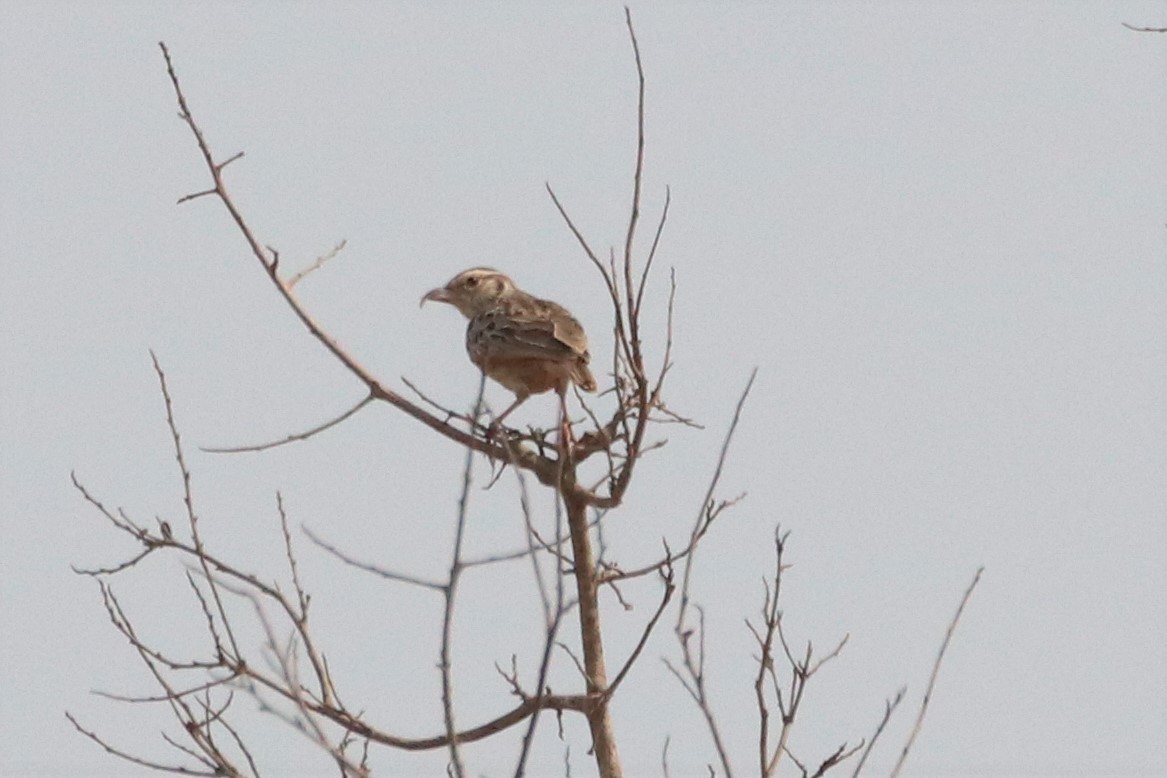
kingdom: Animalia
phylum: Chordata
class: Aves
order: Passeriformes
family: Alaudidae
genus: Mirafra
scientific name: Mirafra erythrocephala
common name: Indochinese bushlark
